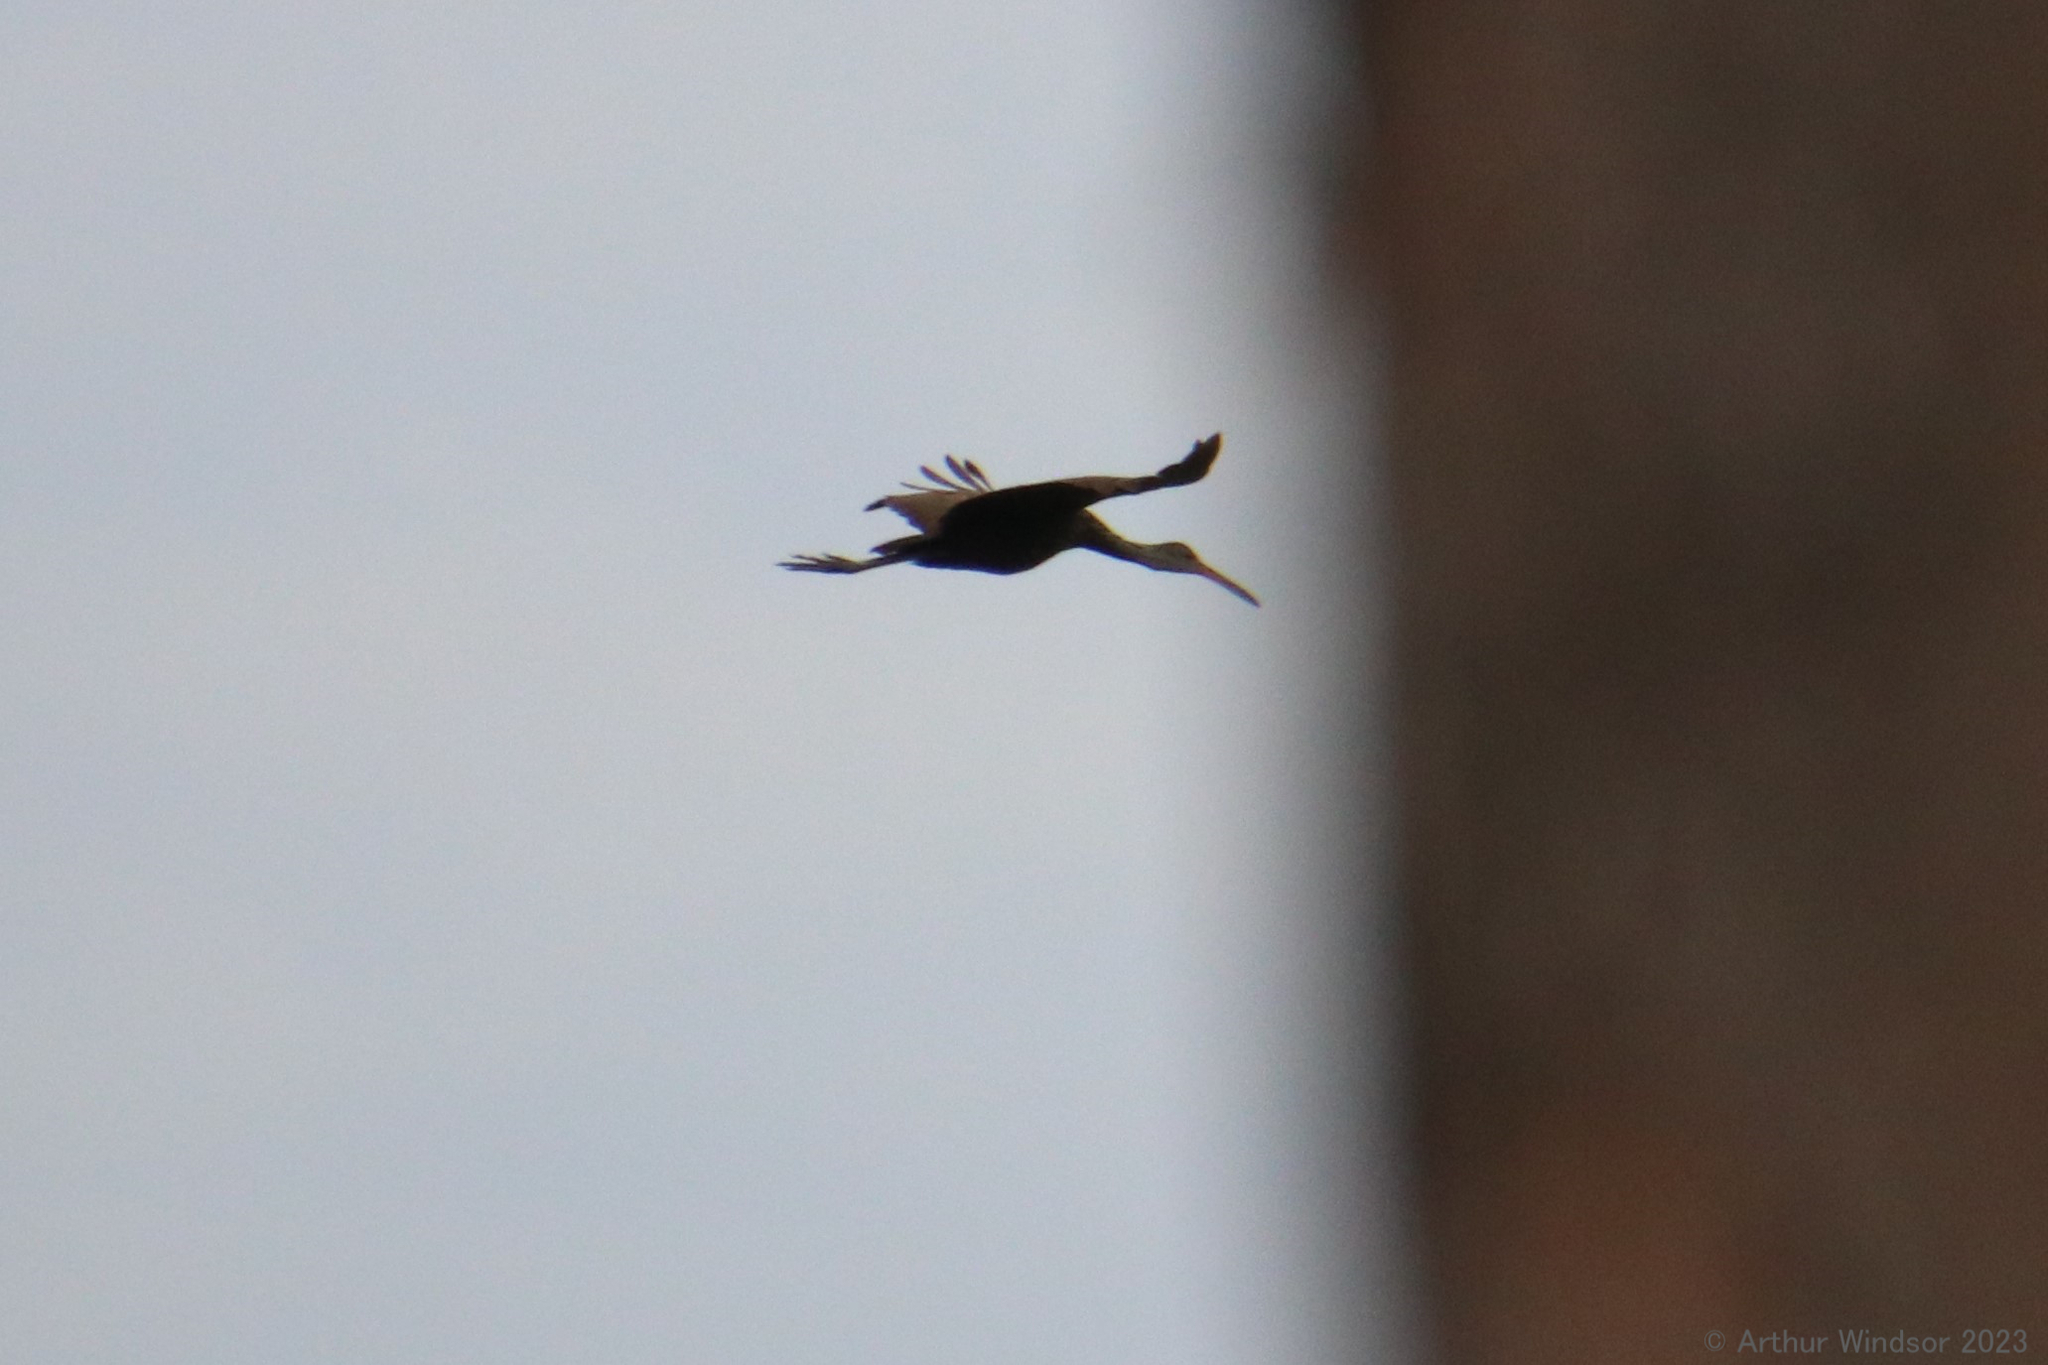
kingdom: Animalia
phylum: Chordata
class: Aves
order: Gruiformes
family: Aramidae
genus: Aramus
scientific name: Aramus guarauna
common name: Limpkin
